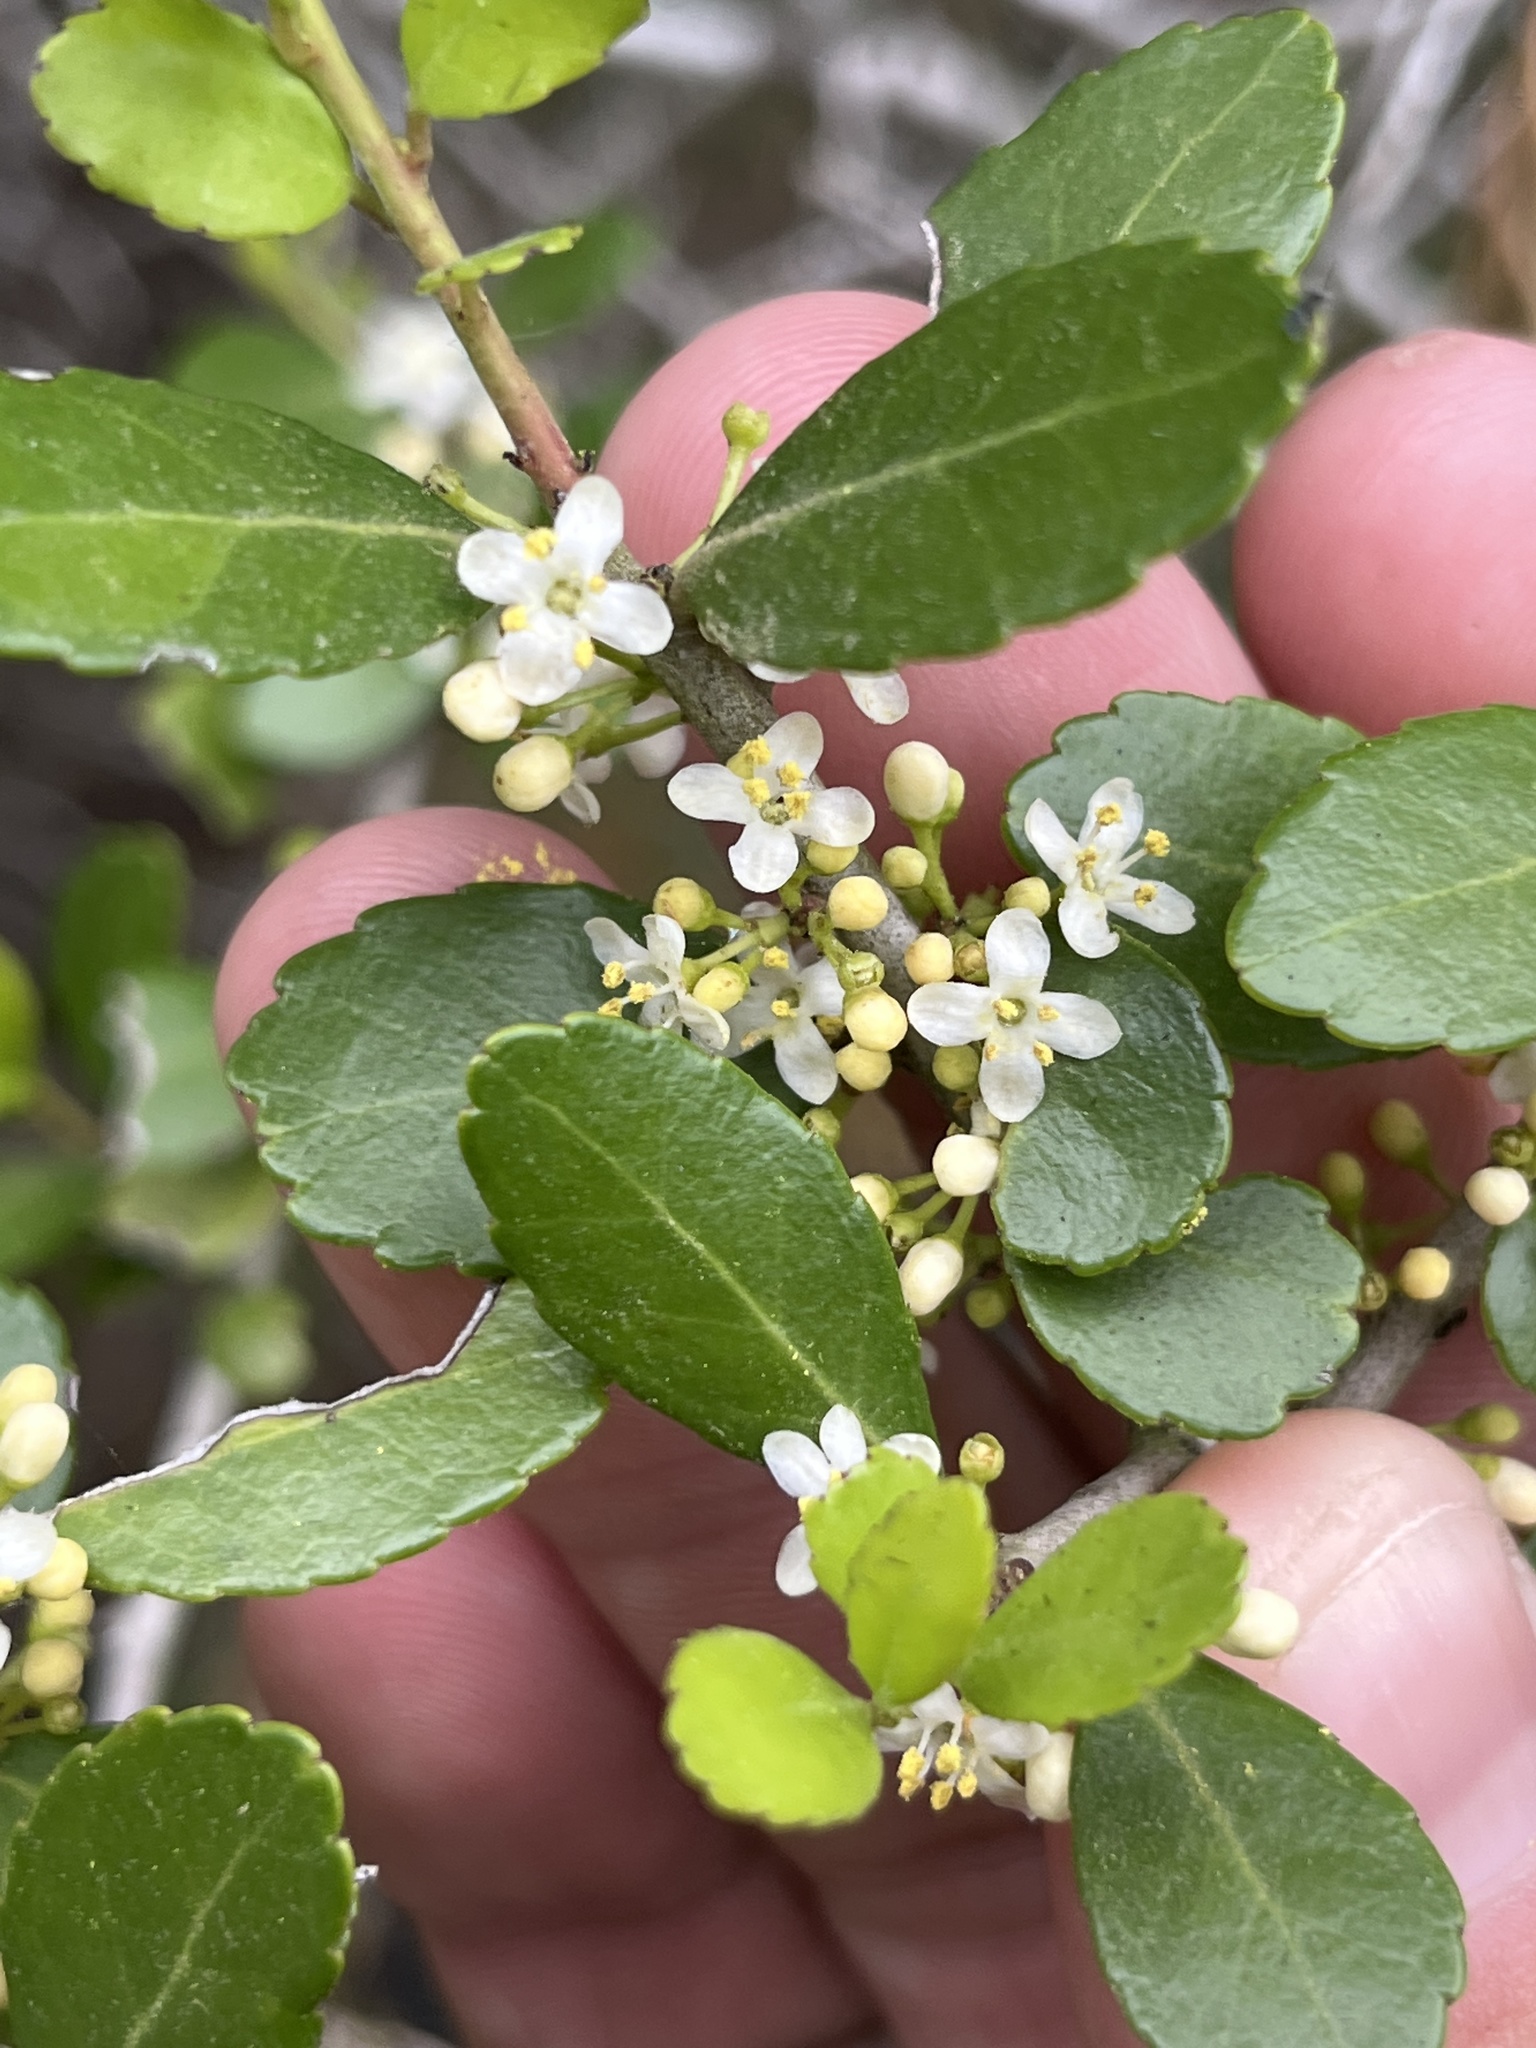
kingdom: Plantae
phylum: Tracheophyta
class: Magnoliopsida
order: Aquifoliales
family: Aquifoliaceae
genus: Ilex
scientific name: Ilex vomitoria
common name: Yaupon holly
